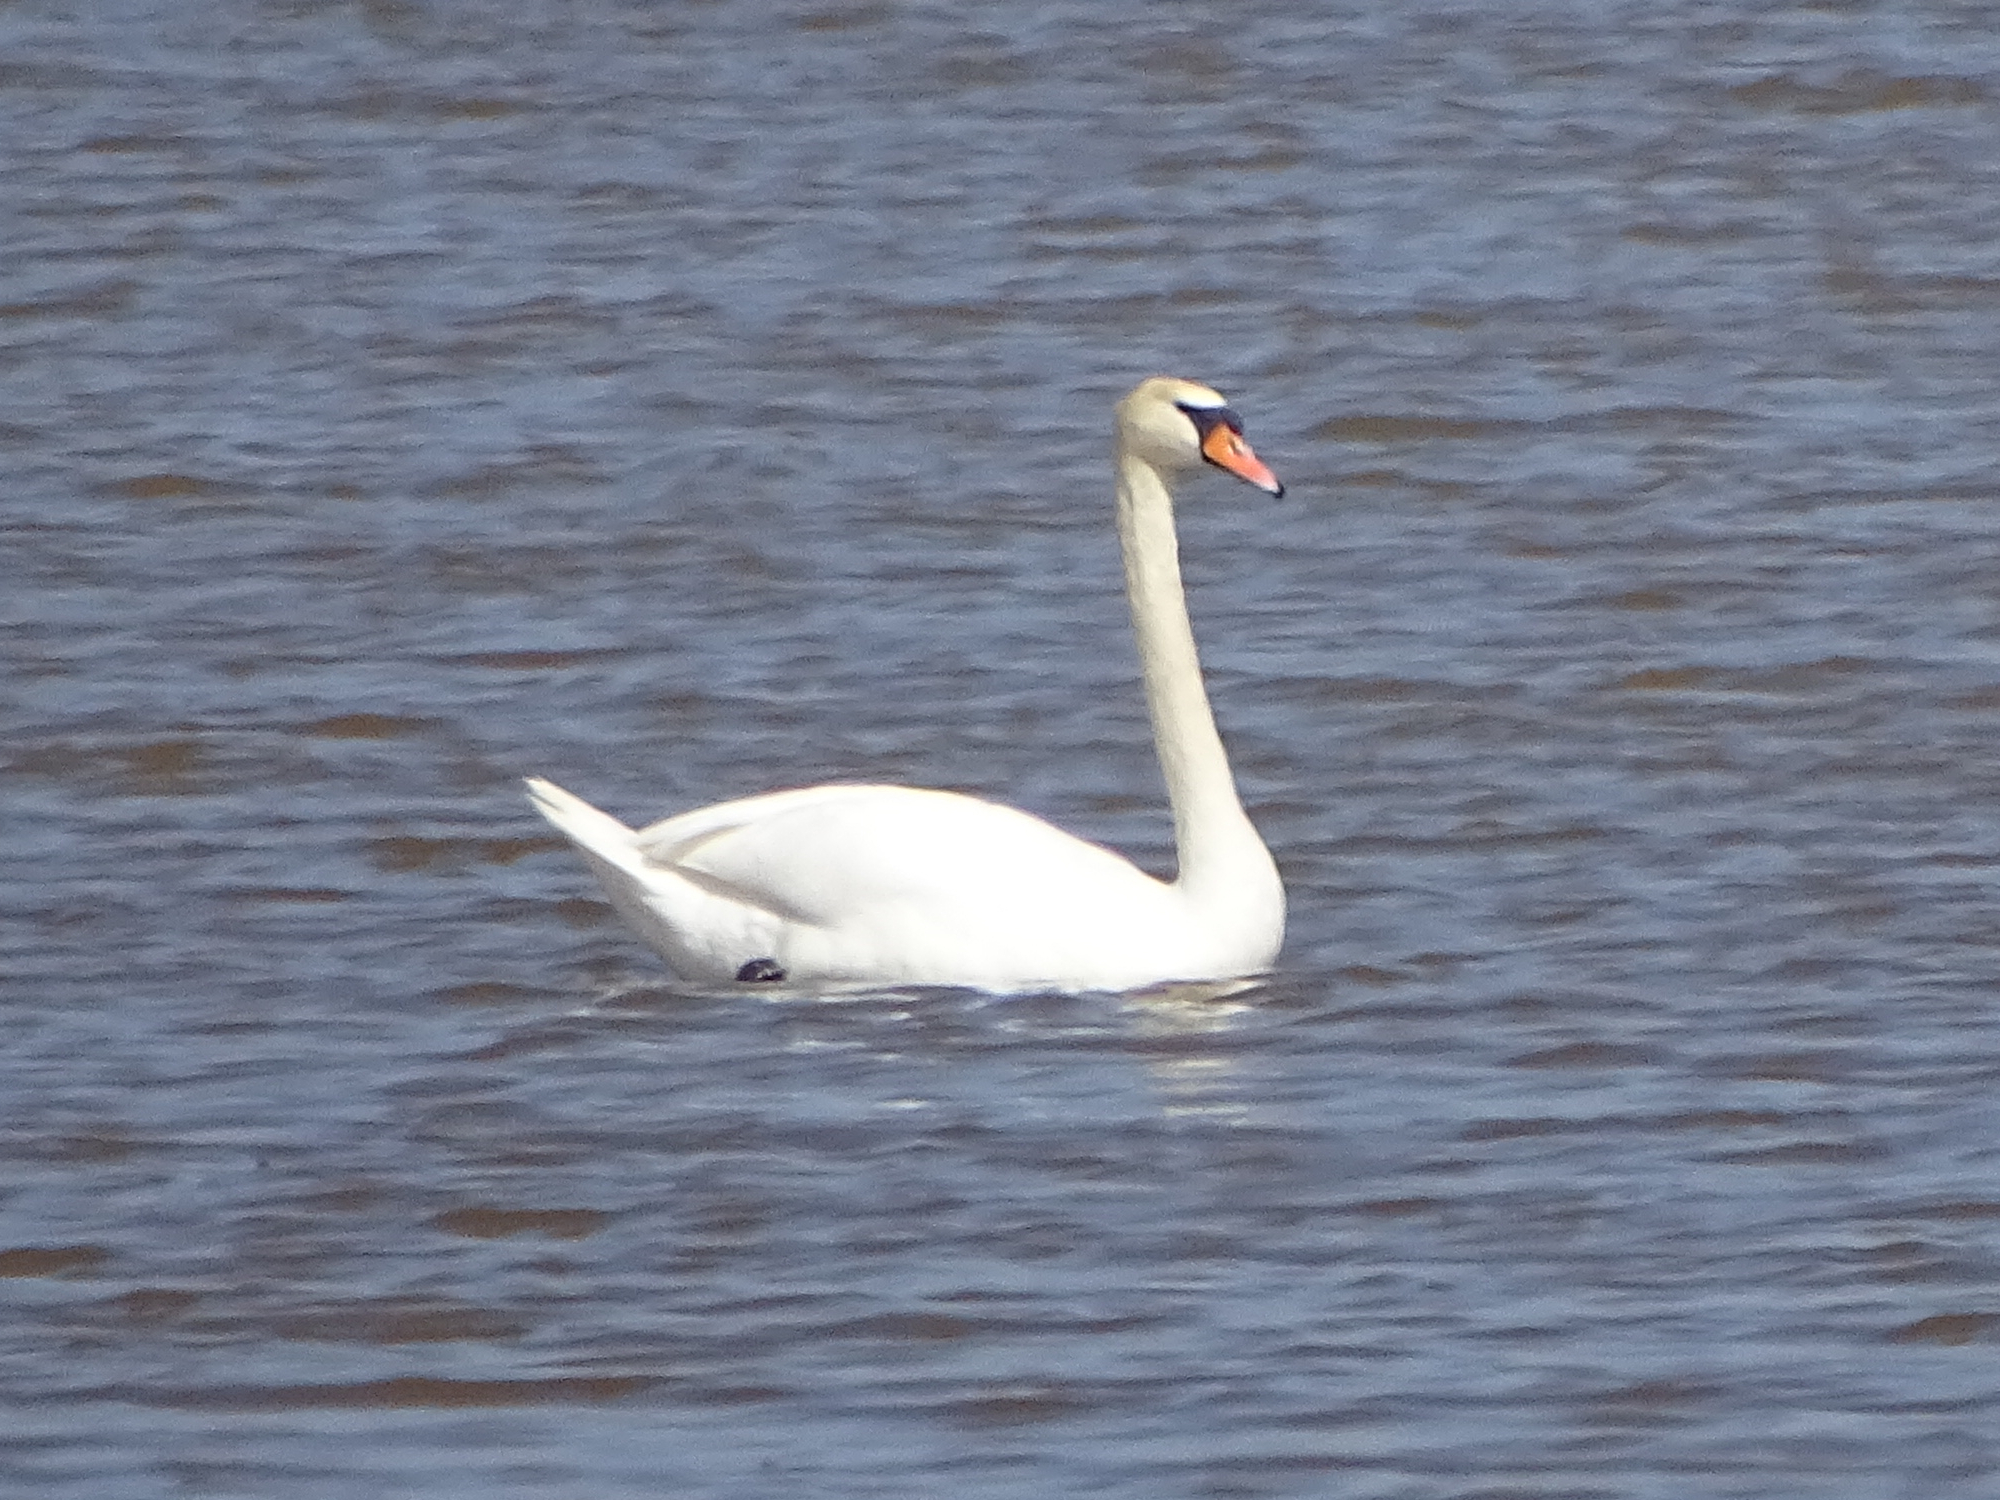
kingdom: Animalia
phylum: Chordata
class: Aves
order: Anseriformes
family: Anatidae
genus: Cygnus
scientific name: Cygnus olor
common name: Mute swan
